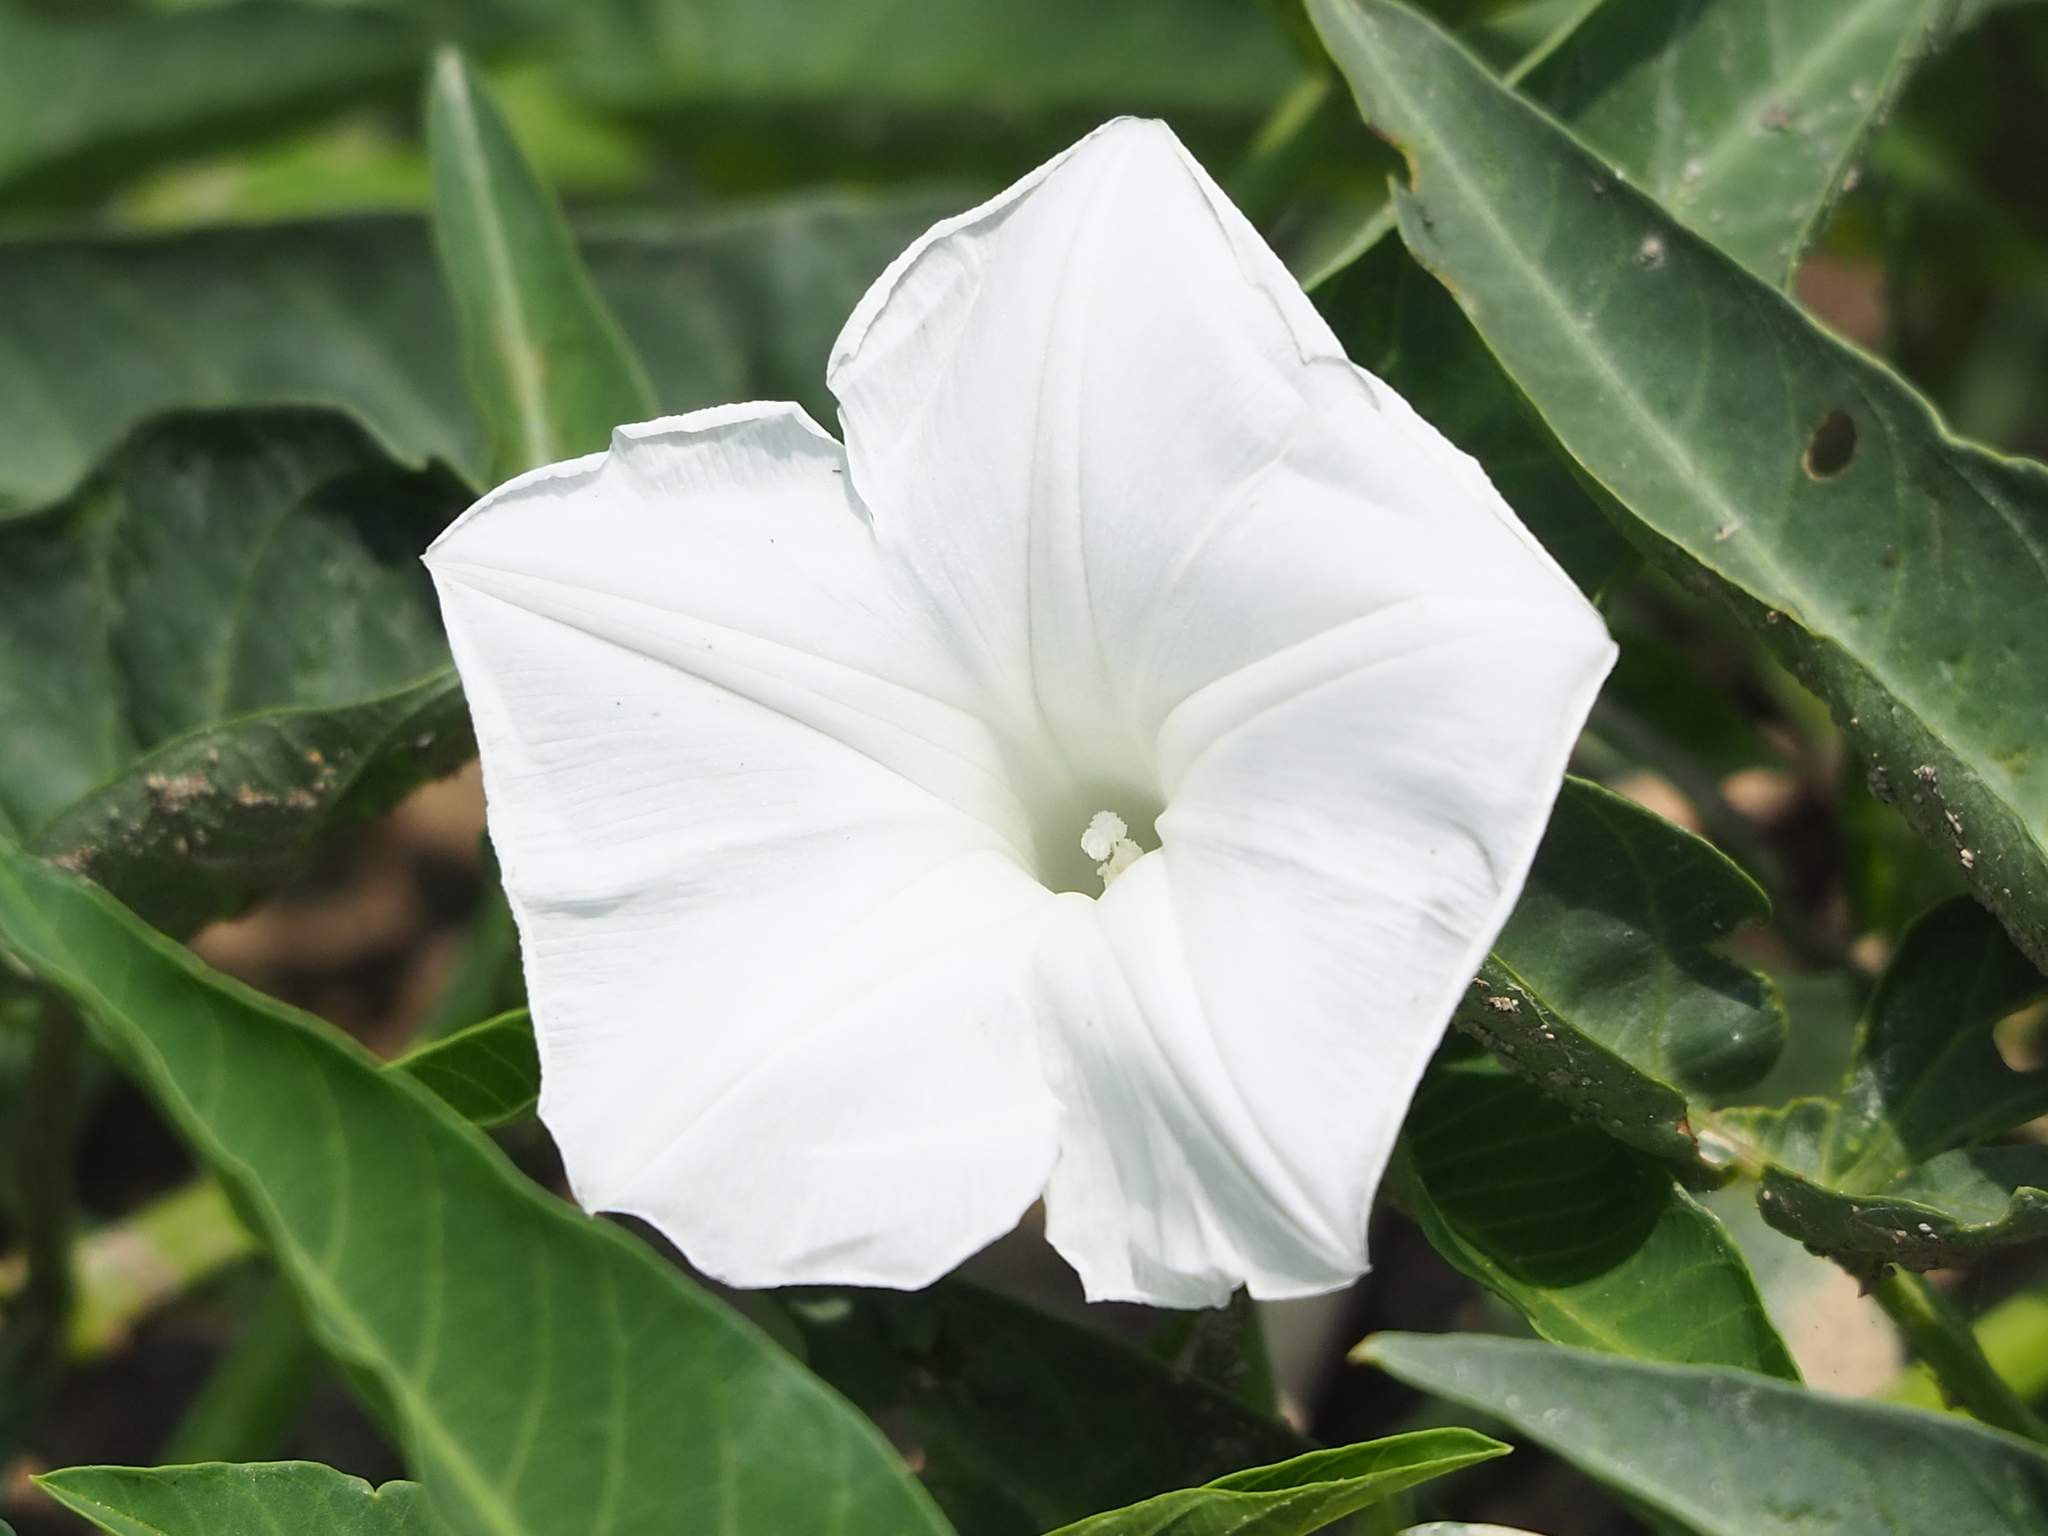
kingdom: Plantae
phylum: Tracheophyta
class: Magnoliopsida
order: Solanales
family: Convolvulaceae
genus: Ipomoea
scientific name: Ipomoea aquatica
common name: Swamp morning-glory
